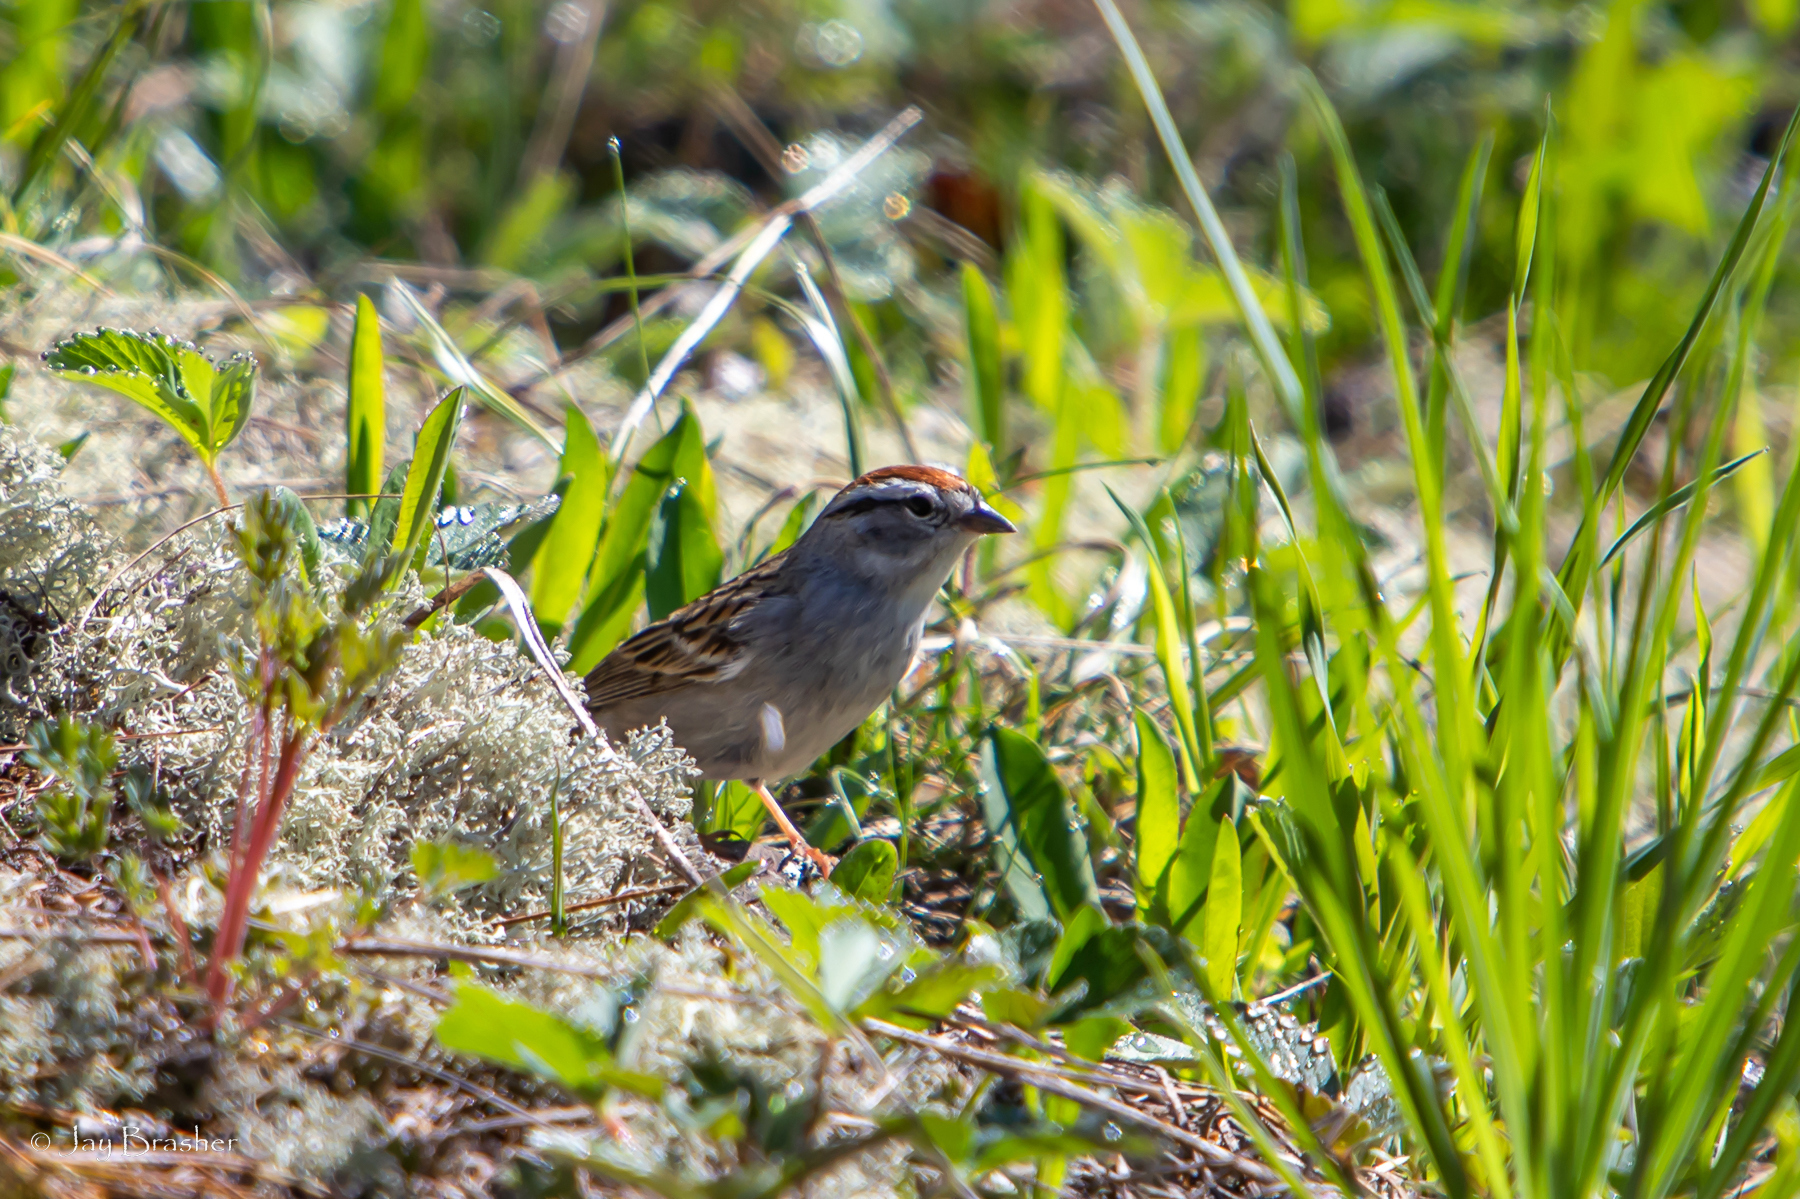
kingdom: Animalia
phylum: Chordata
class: Aves
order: Passeriformes
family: Passerellidae
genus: Spizella
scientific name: Spizella passerina
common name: Chipping sparrow
